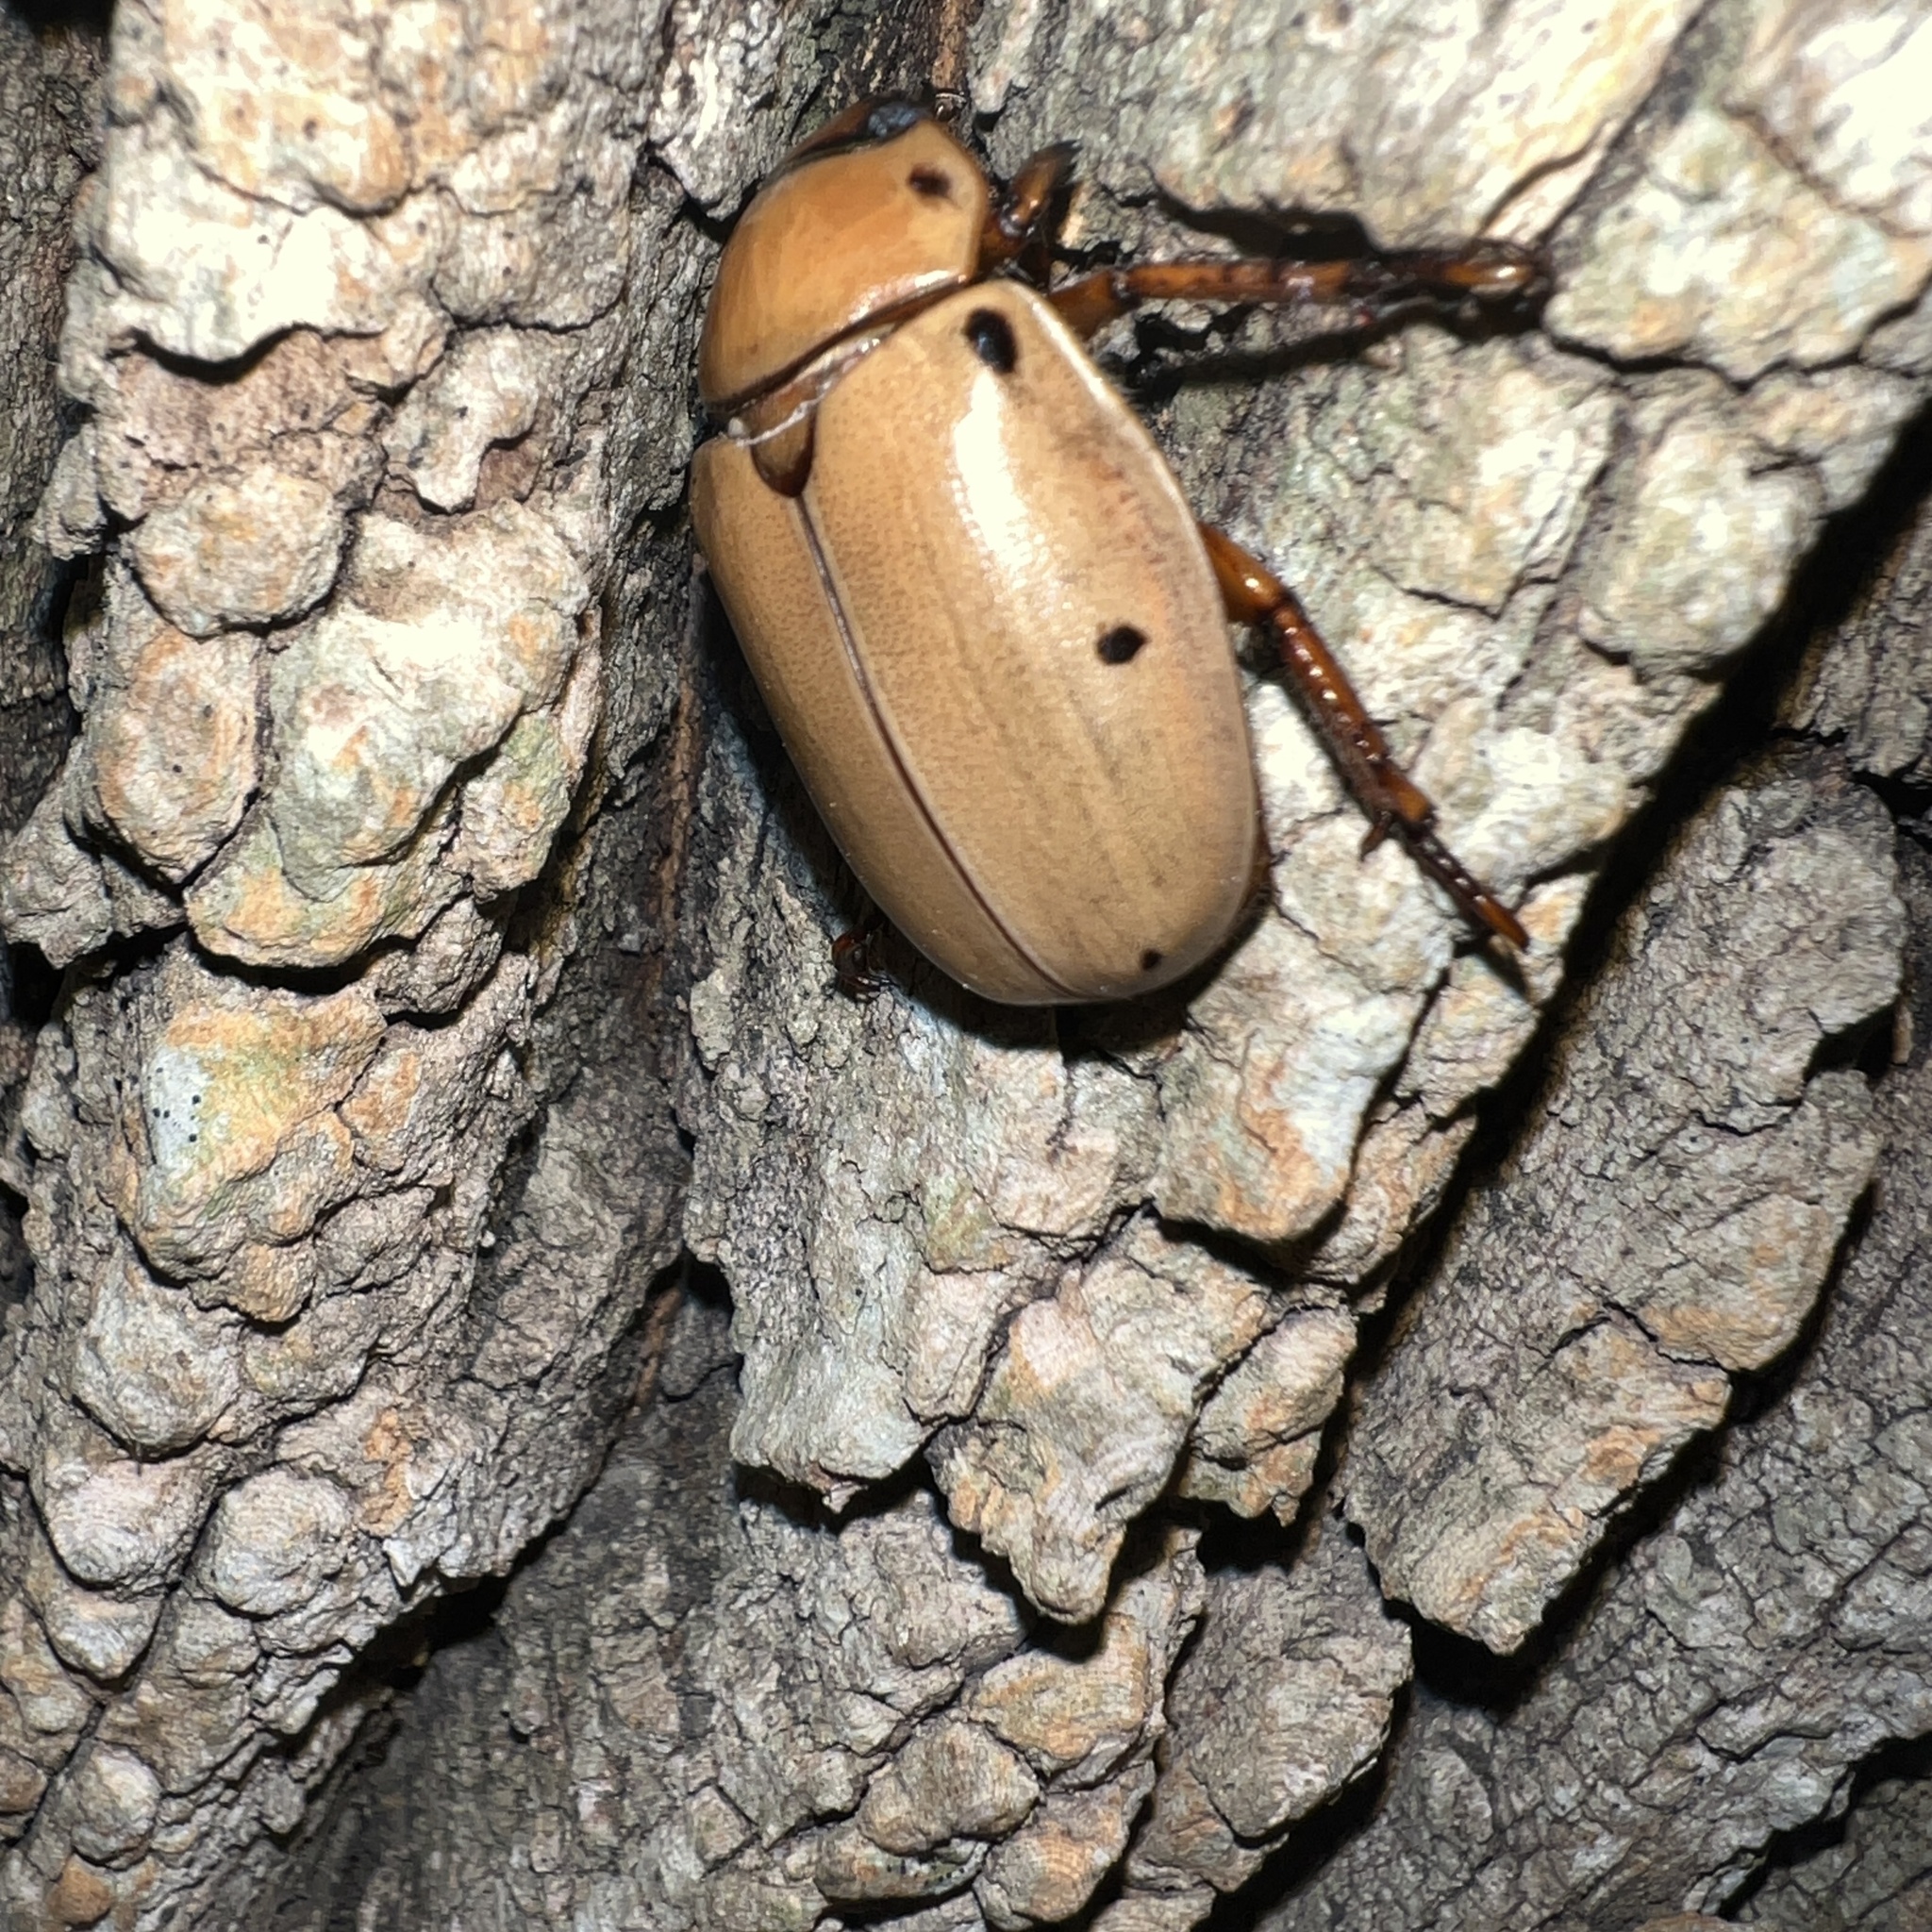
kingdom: Animalia
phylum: Arthropoda
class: Insecta
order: Coleoptera
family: Scarabaeidae
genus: Pelidnota
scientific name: Pelidnota punctata
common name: Grapevine beetle
